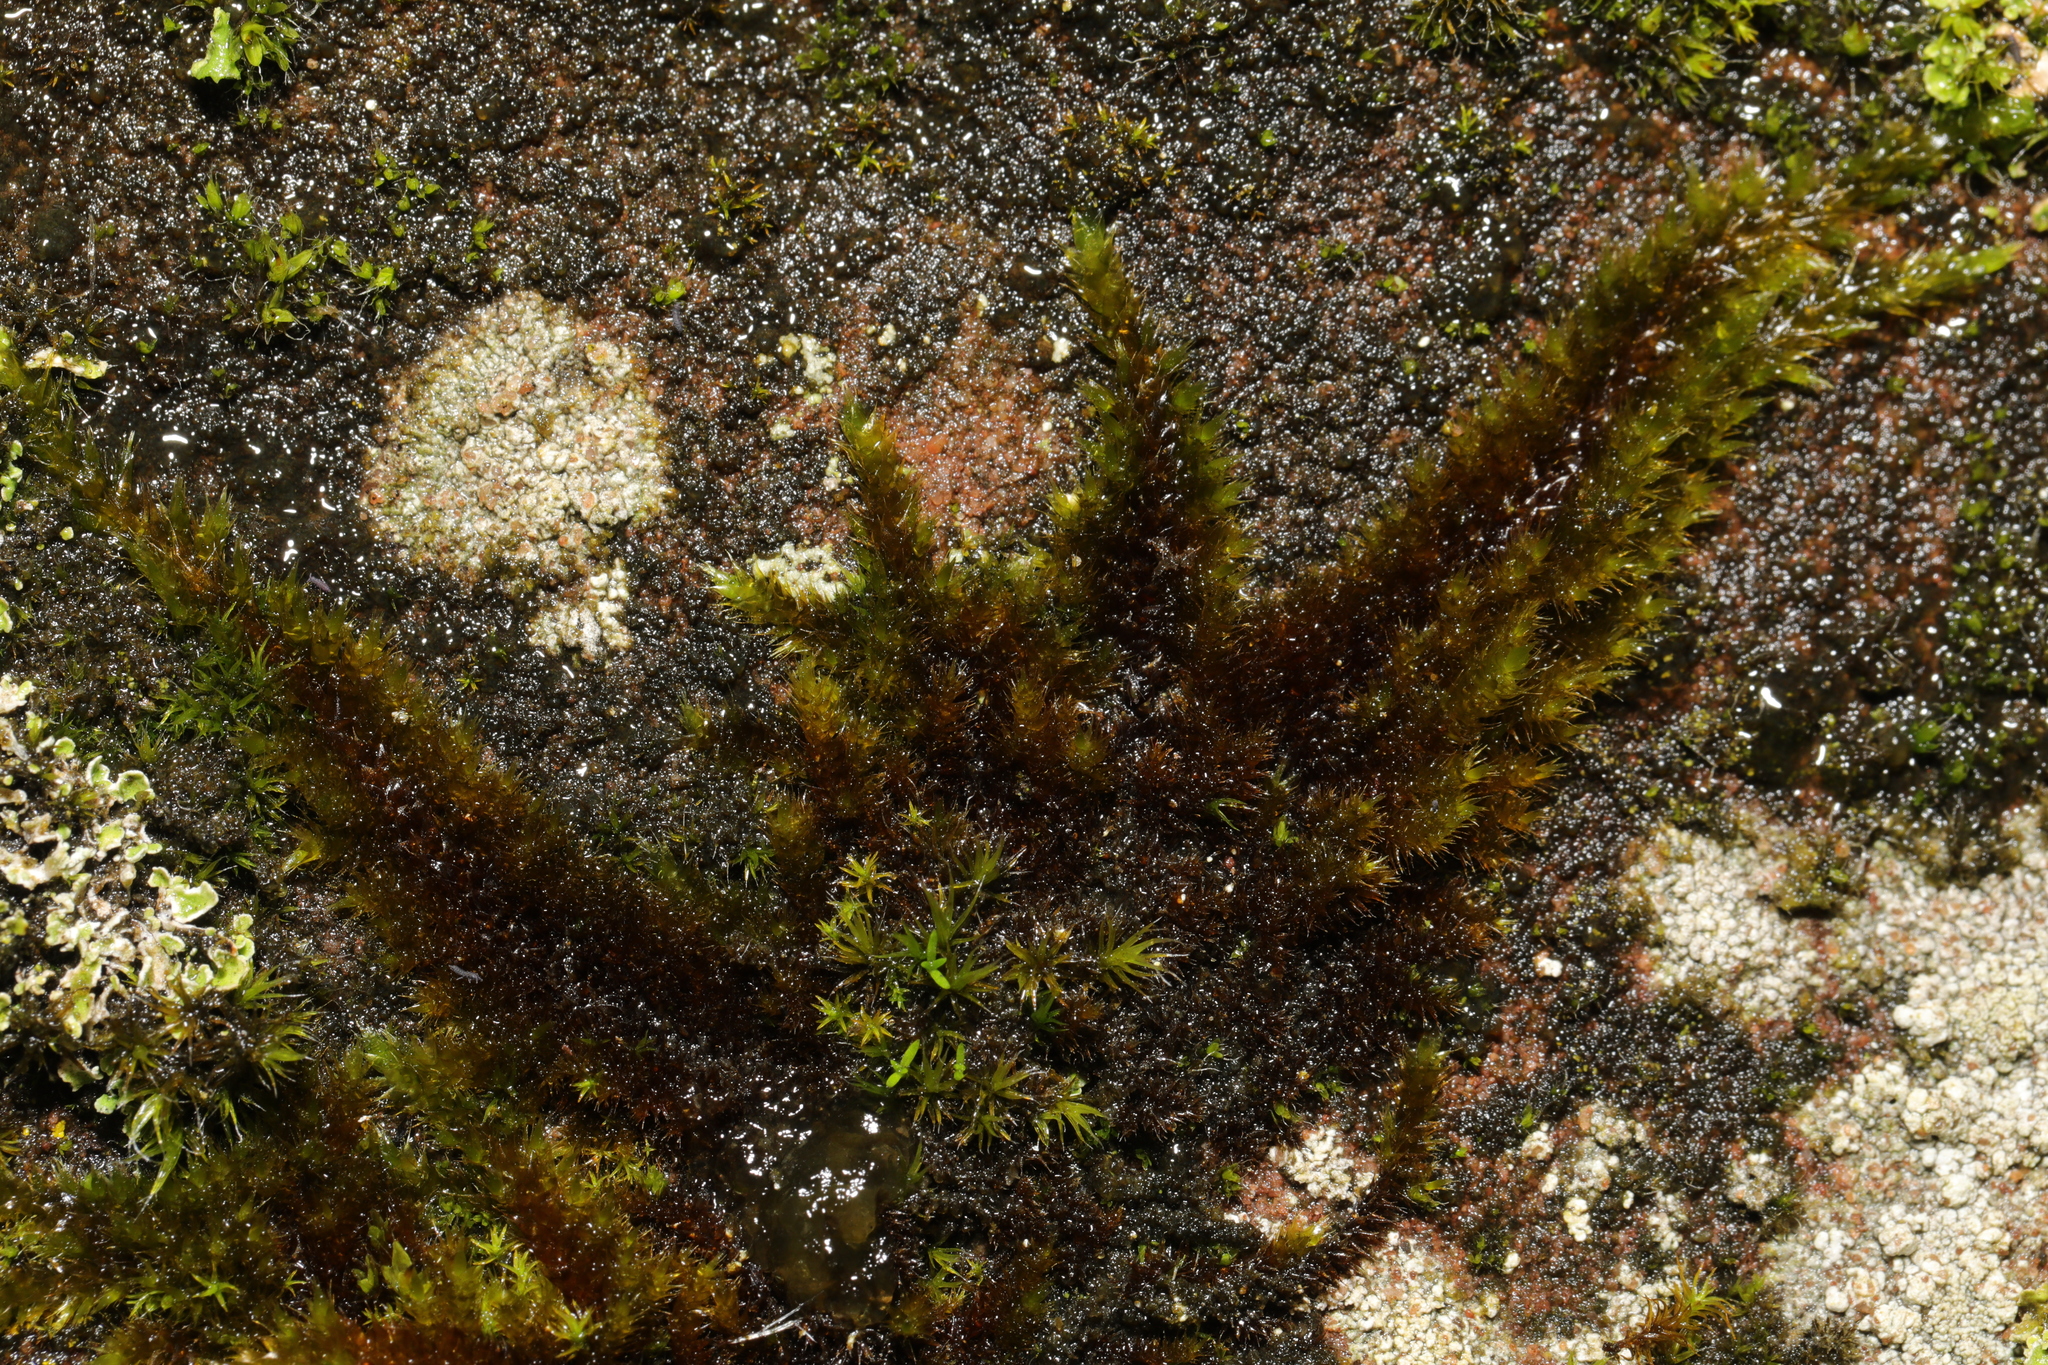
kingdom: Plantae
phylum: Bryophyta
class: Bryopsida
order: Hypnales
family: Brachytheciaceae
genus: Homalothecium
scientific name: Homalothecium sericeum
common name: Silky wall feather-moss
